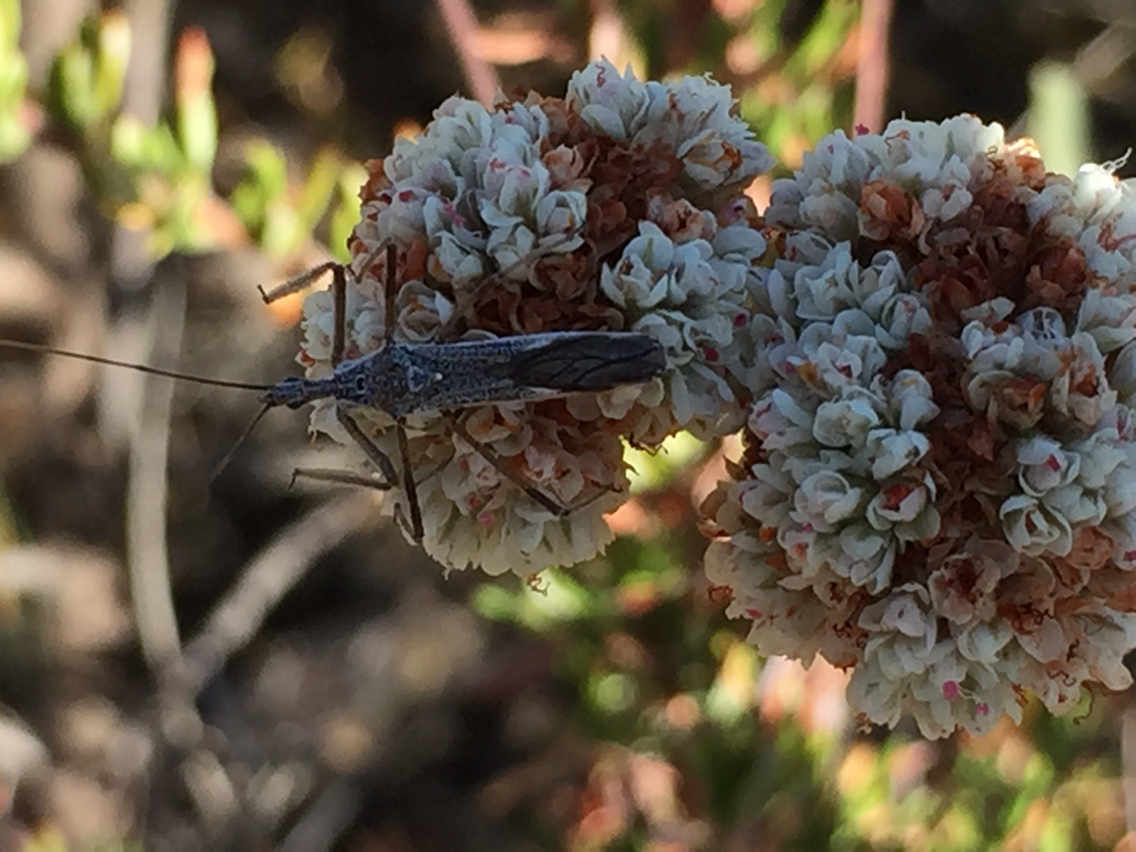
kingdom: Animalia
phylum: Arthropoda
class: Insecta
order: Hemiptera
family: Reduviidae
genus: Zelus
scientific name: Zelus tetracanthus
